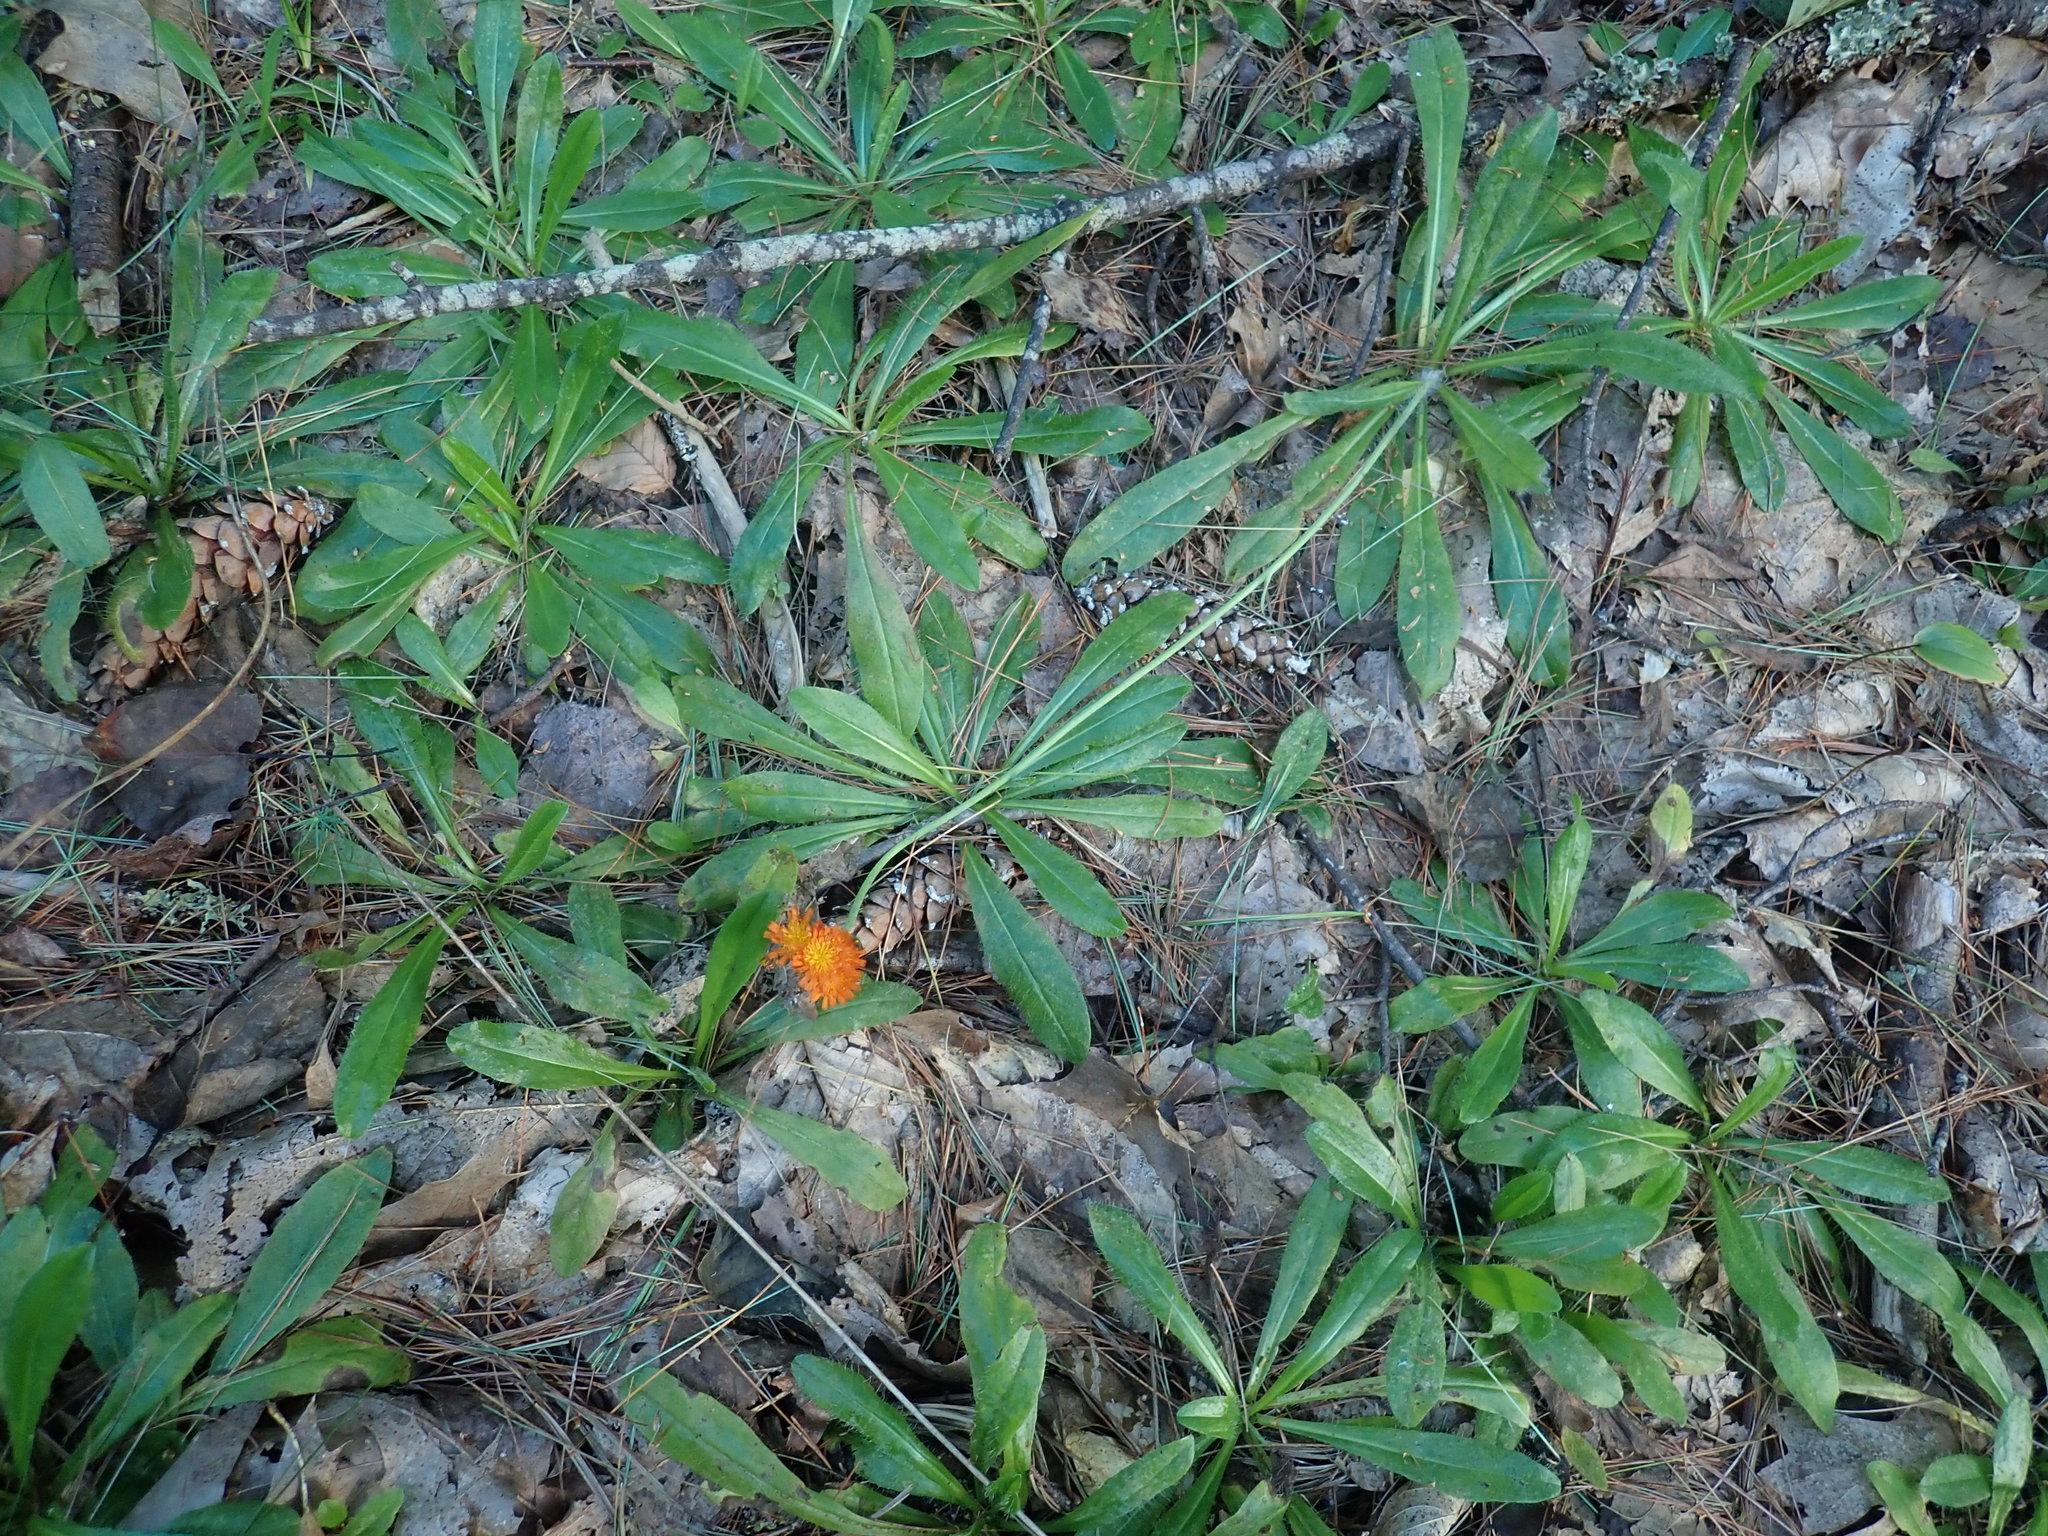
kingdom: Plantae
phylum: Tracheophyta
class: Magnoliopsida
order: Asterales
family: Asteraceae
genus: Pilosella
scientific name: Pilosella aurantiaca
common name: Fox-and-cubs
